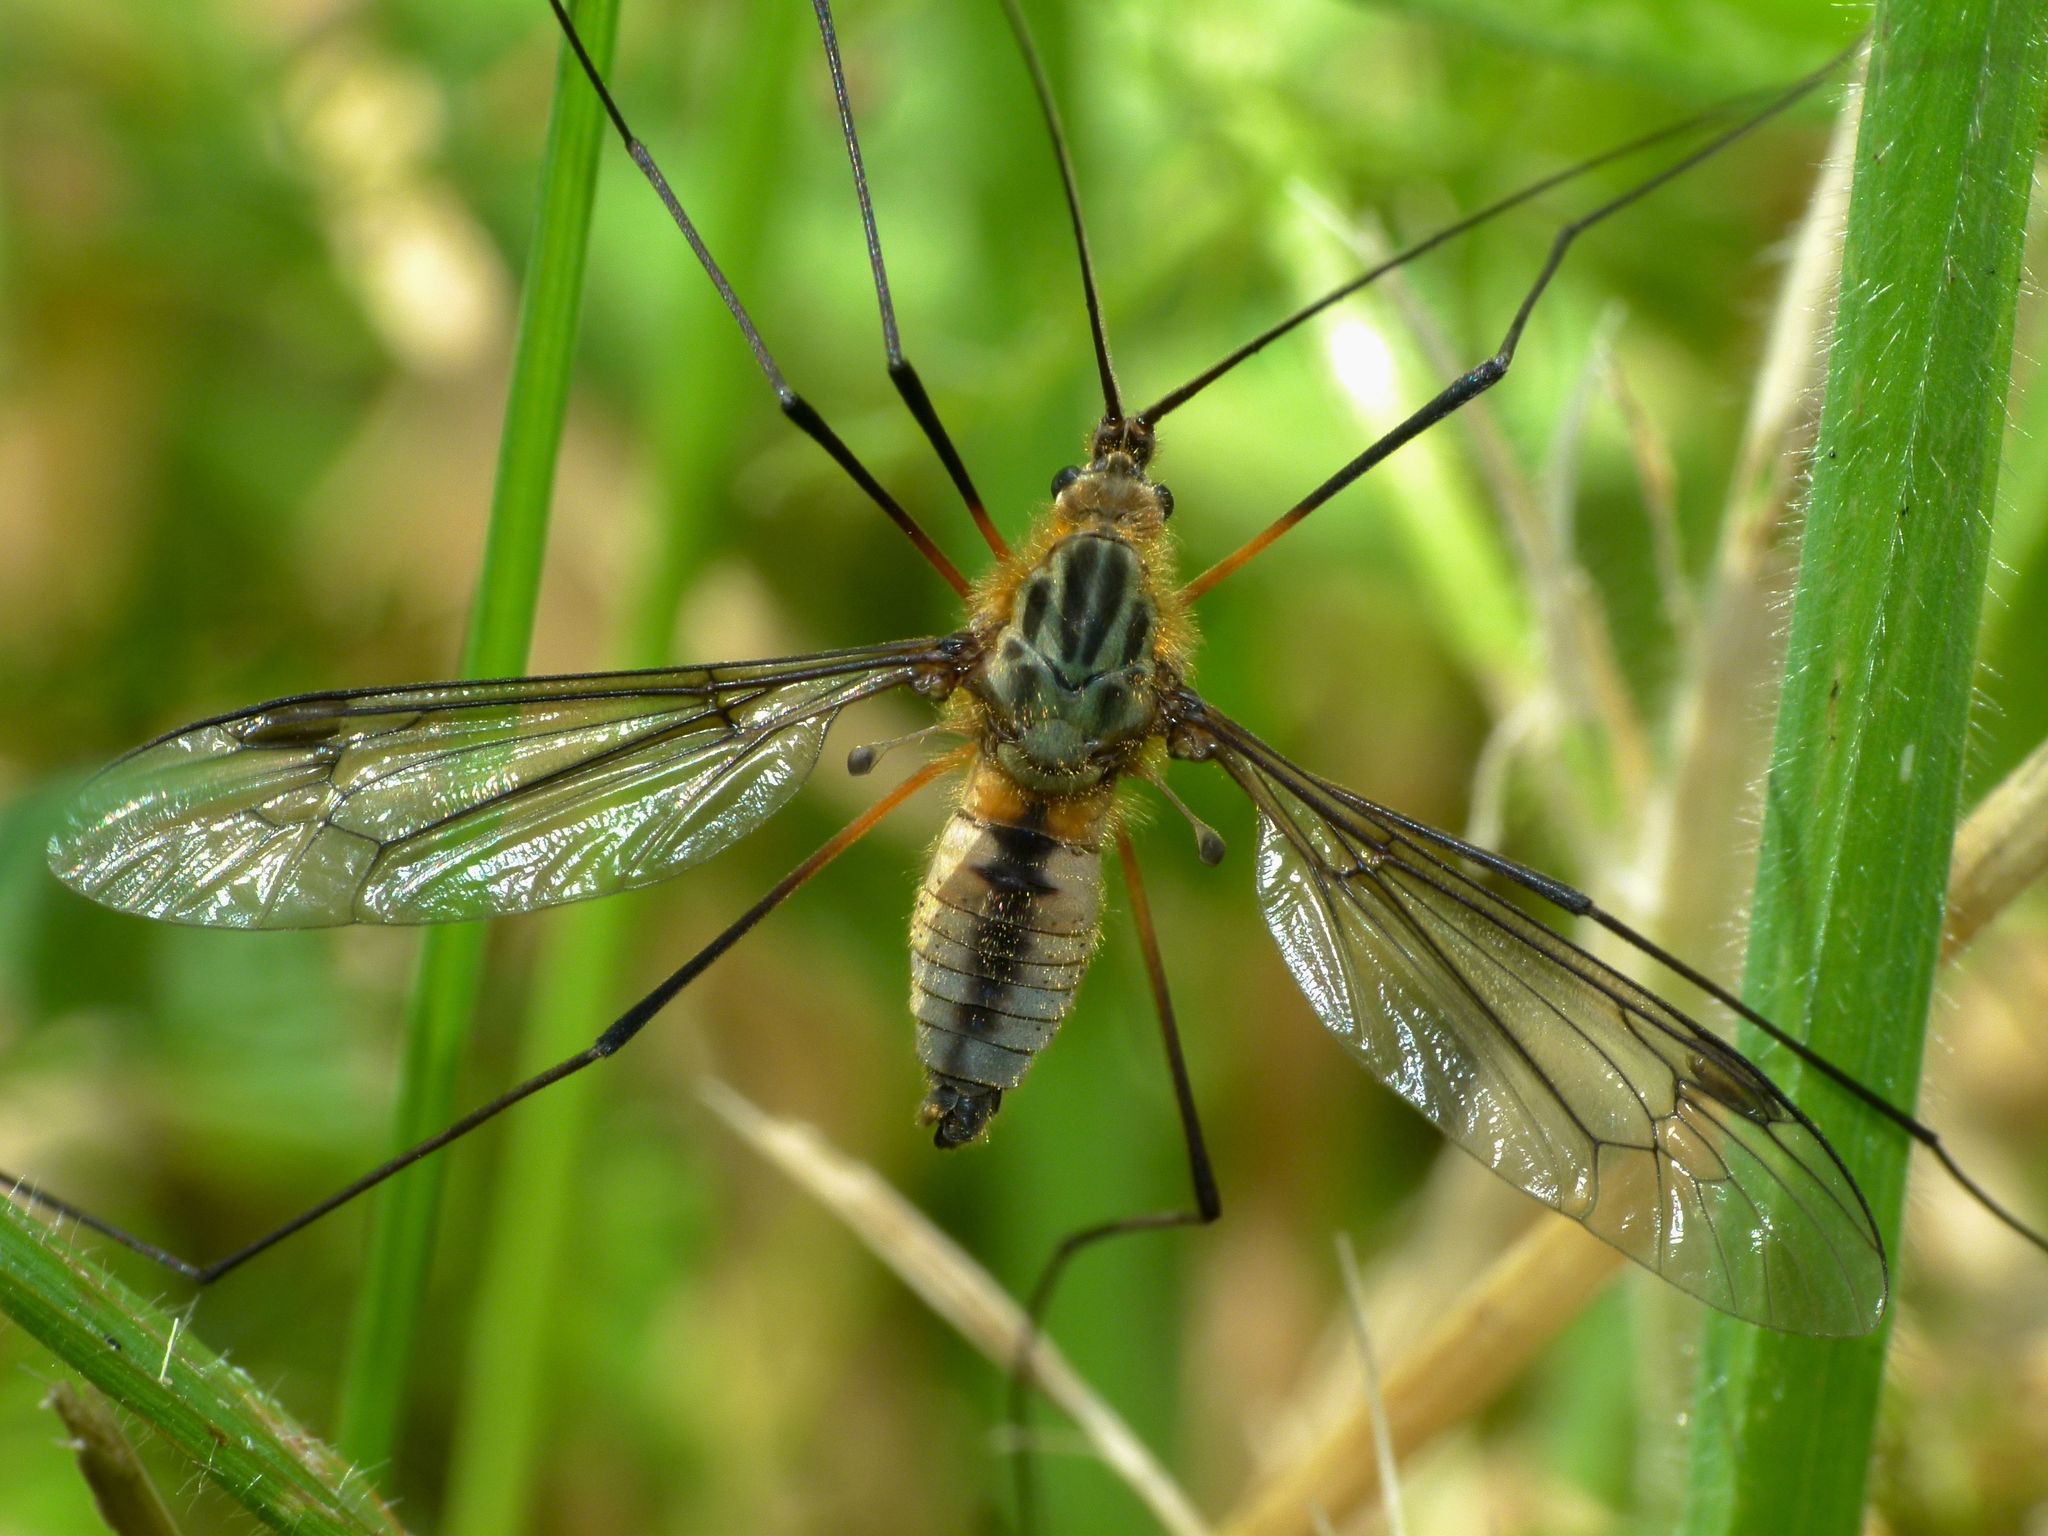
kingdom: Animalia
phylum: Arthropoda
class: Insecta
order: Diptera
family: Tipulidae
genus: Leptotarsus
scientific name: Leptotarsus vulpinus
